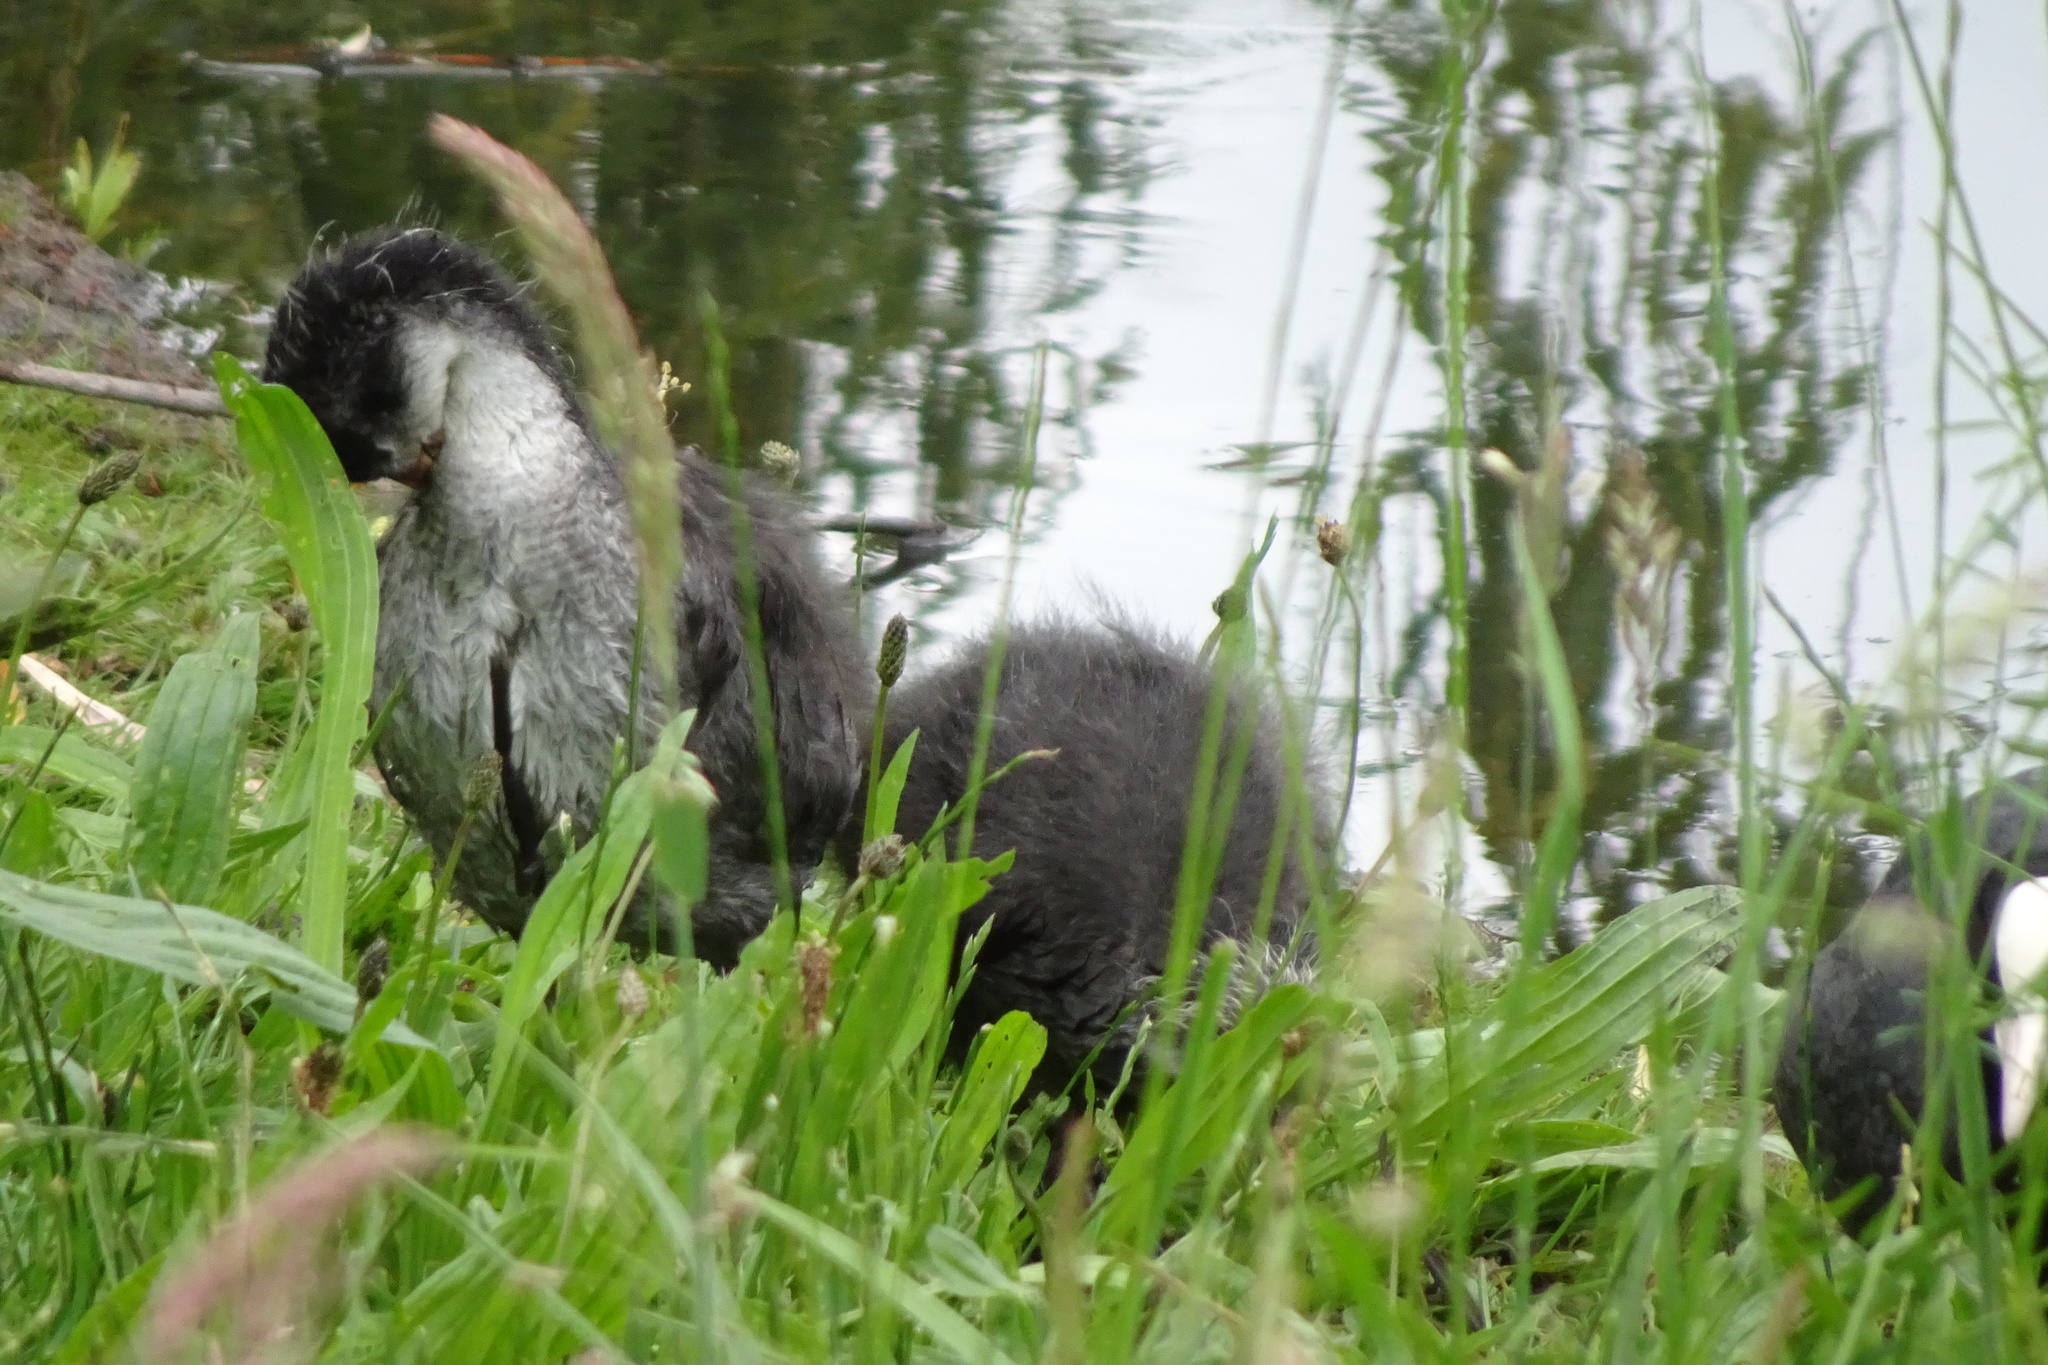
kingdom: Animalia
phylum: Chordata
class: Aves
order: Gruiformes
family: Rallidae
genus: Fulica
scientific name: Fulica atra
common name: Eurasian coot
